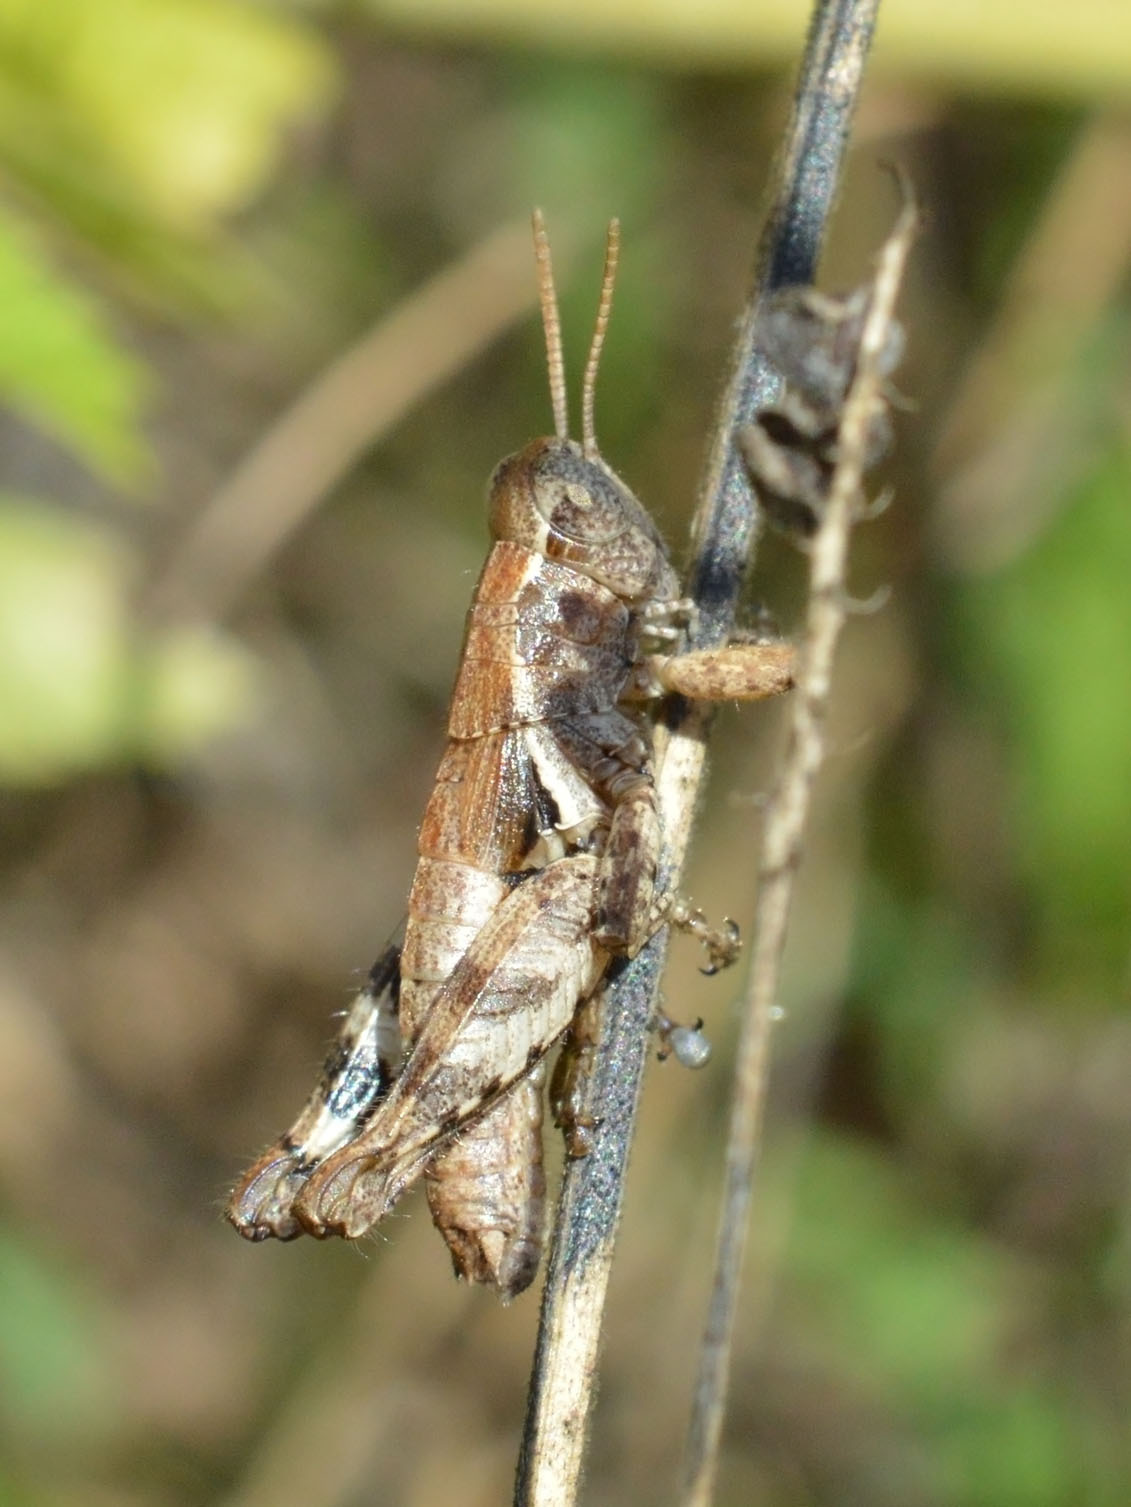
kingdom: Animalia
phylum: Arthropoda
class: Insecta
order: Orthoptera
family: Acrididae
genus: Pezotettix
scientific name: Pezotettix giornae
